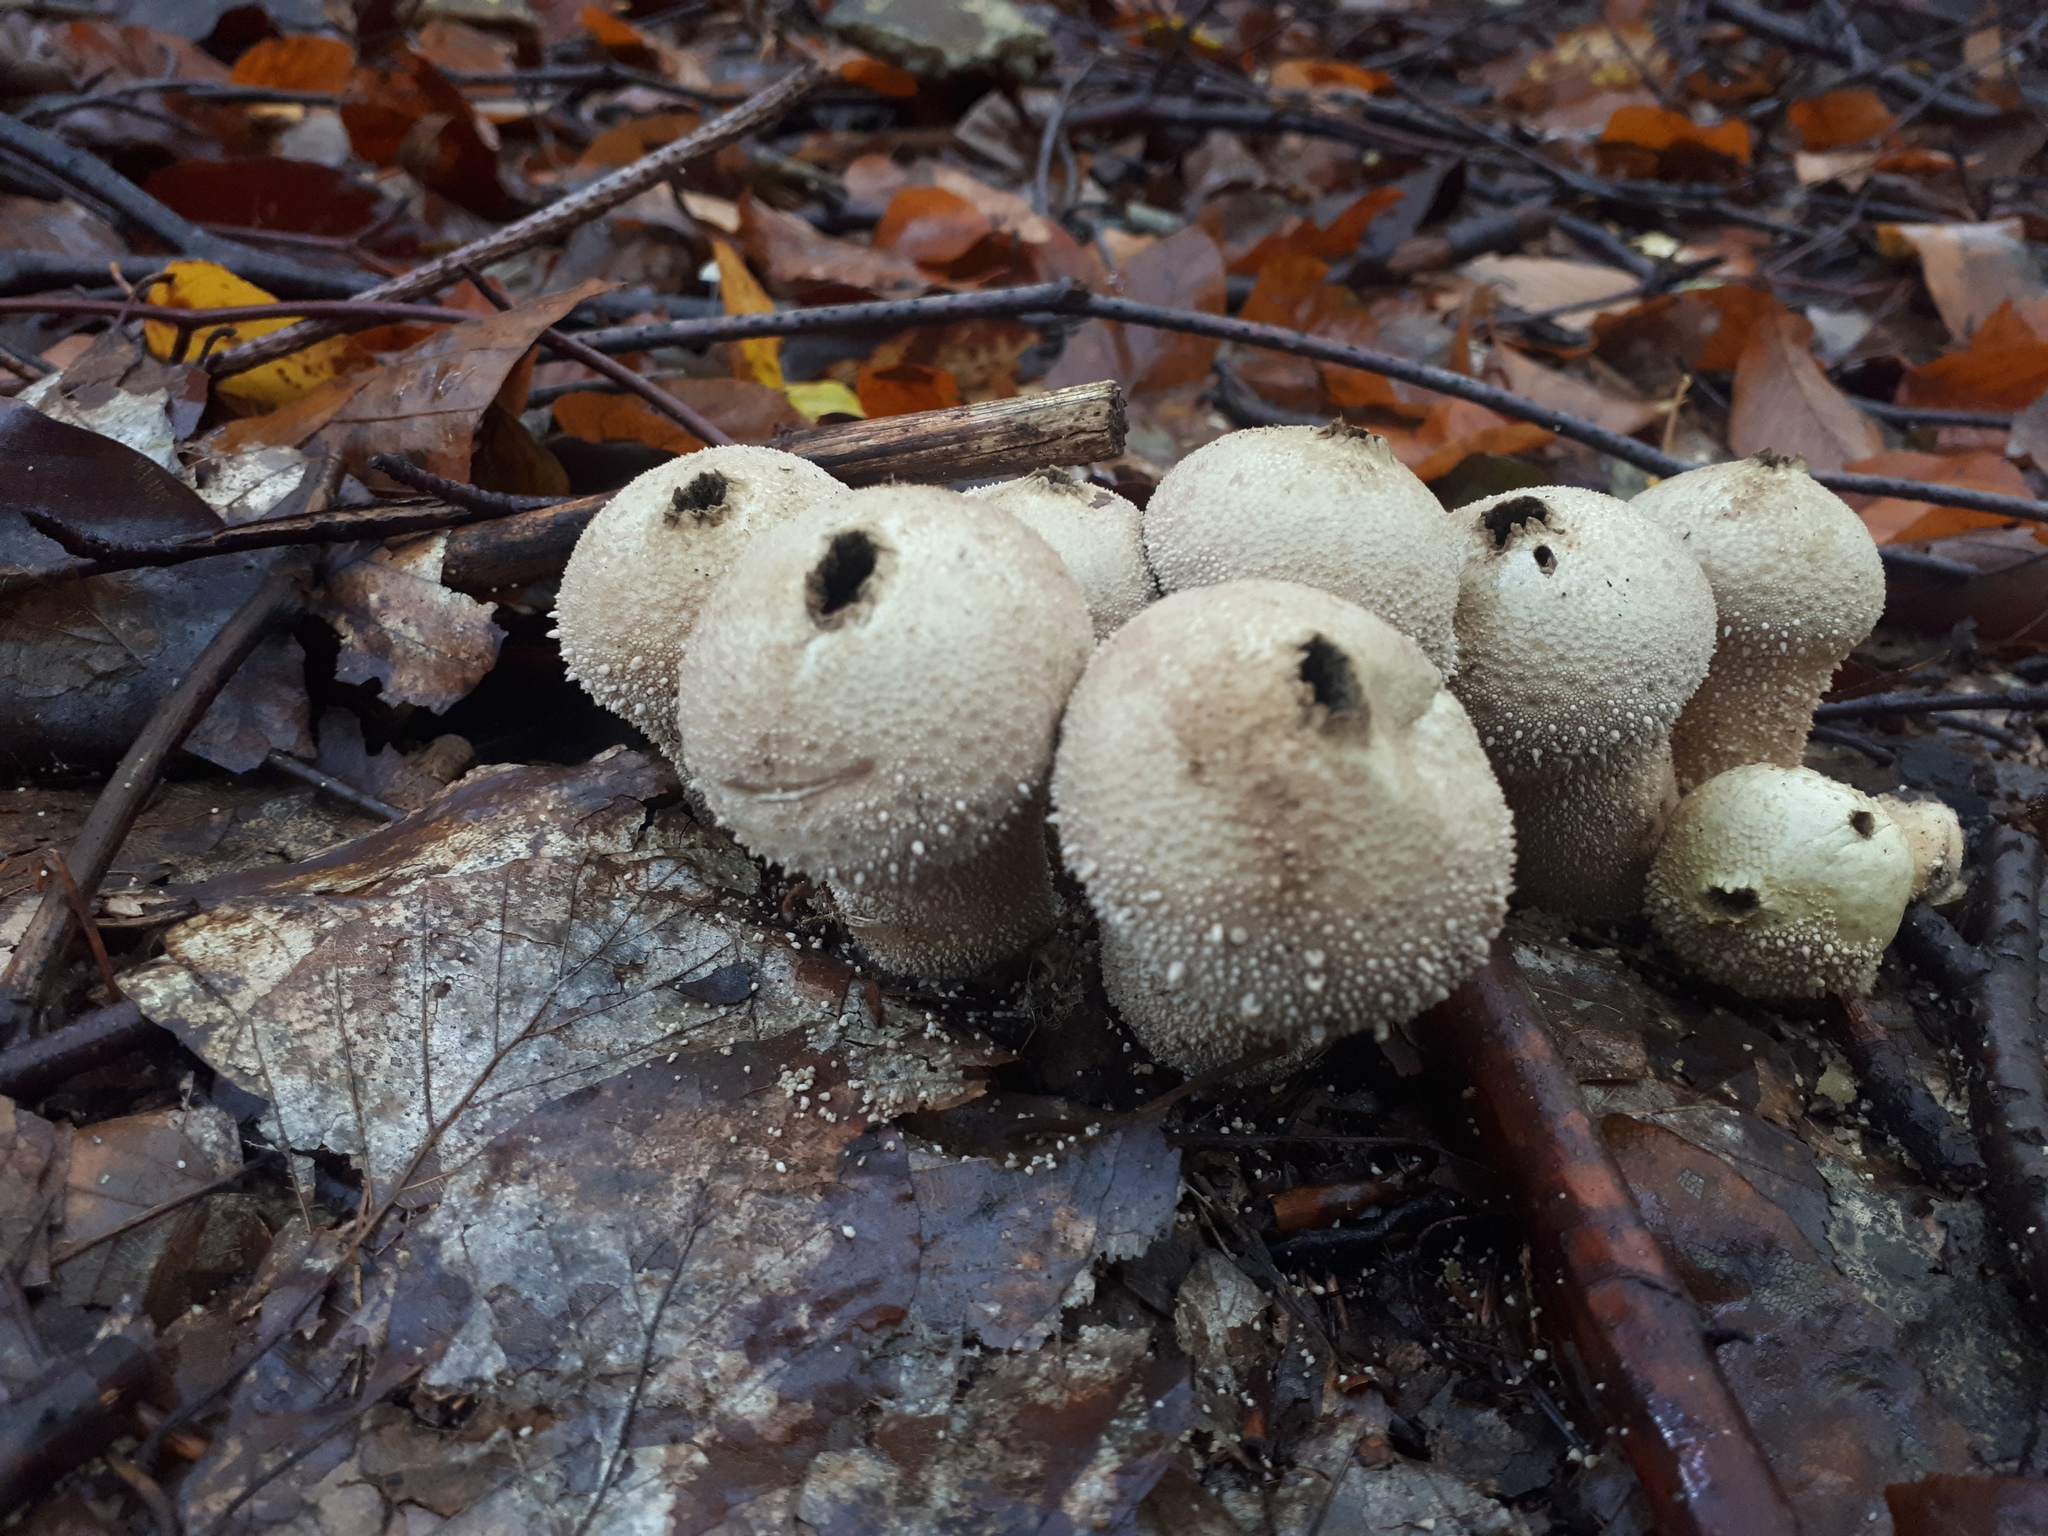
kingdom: Fungi
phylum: Basidiomycota
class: Agaricomycetes
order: Agaricales
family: Lycoperdaceae
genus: Lycoperdon
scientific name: Lycoperdon perlatum
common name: Common puffball
